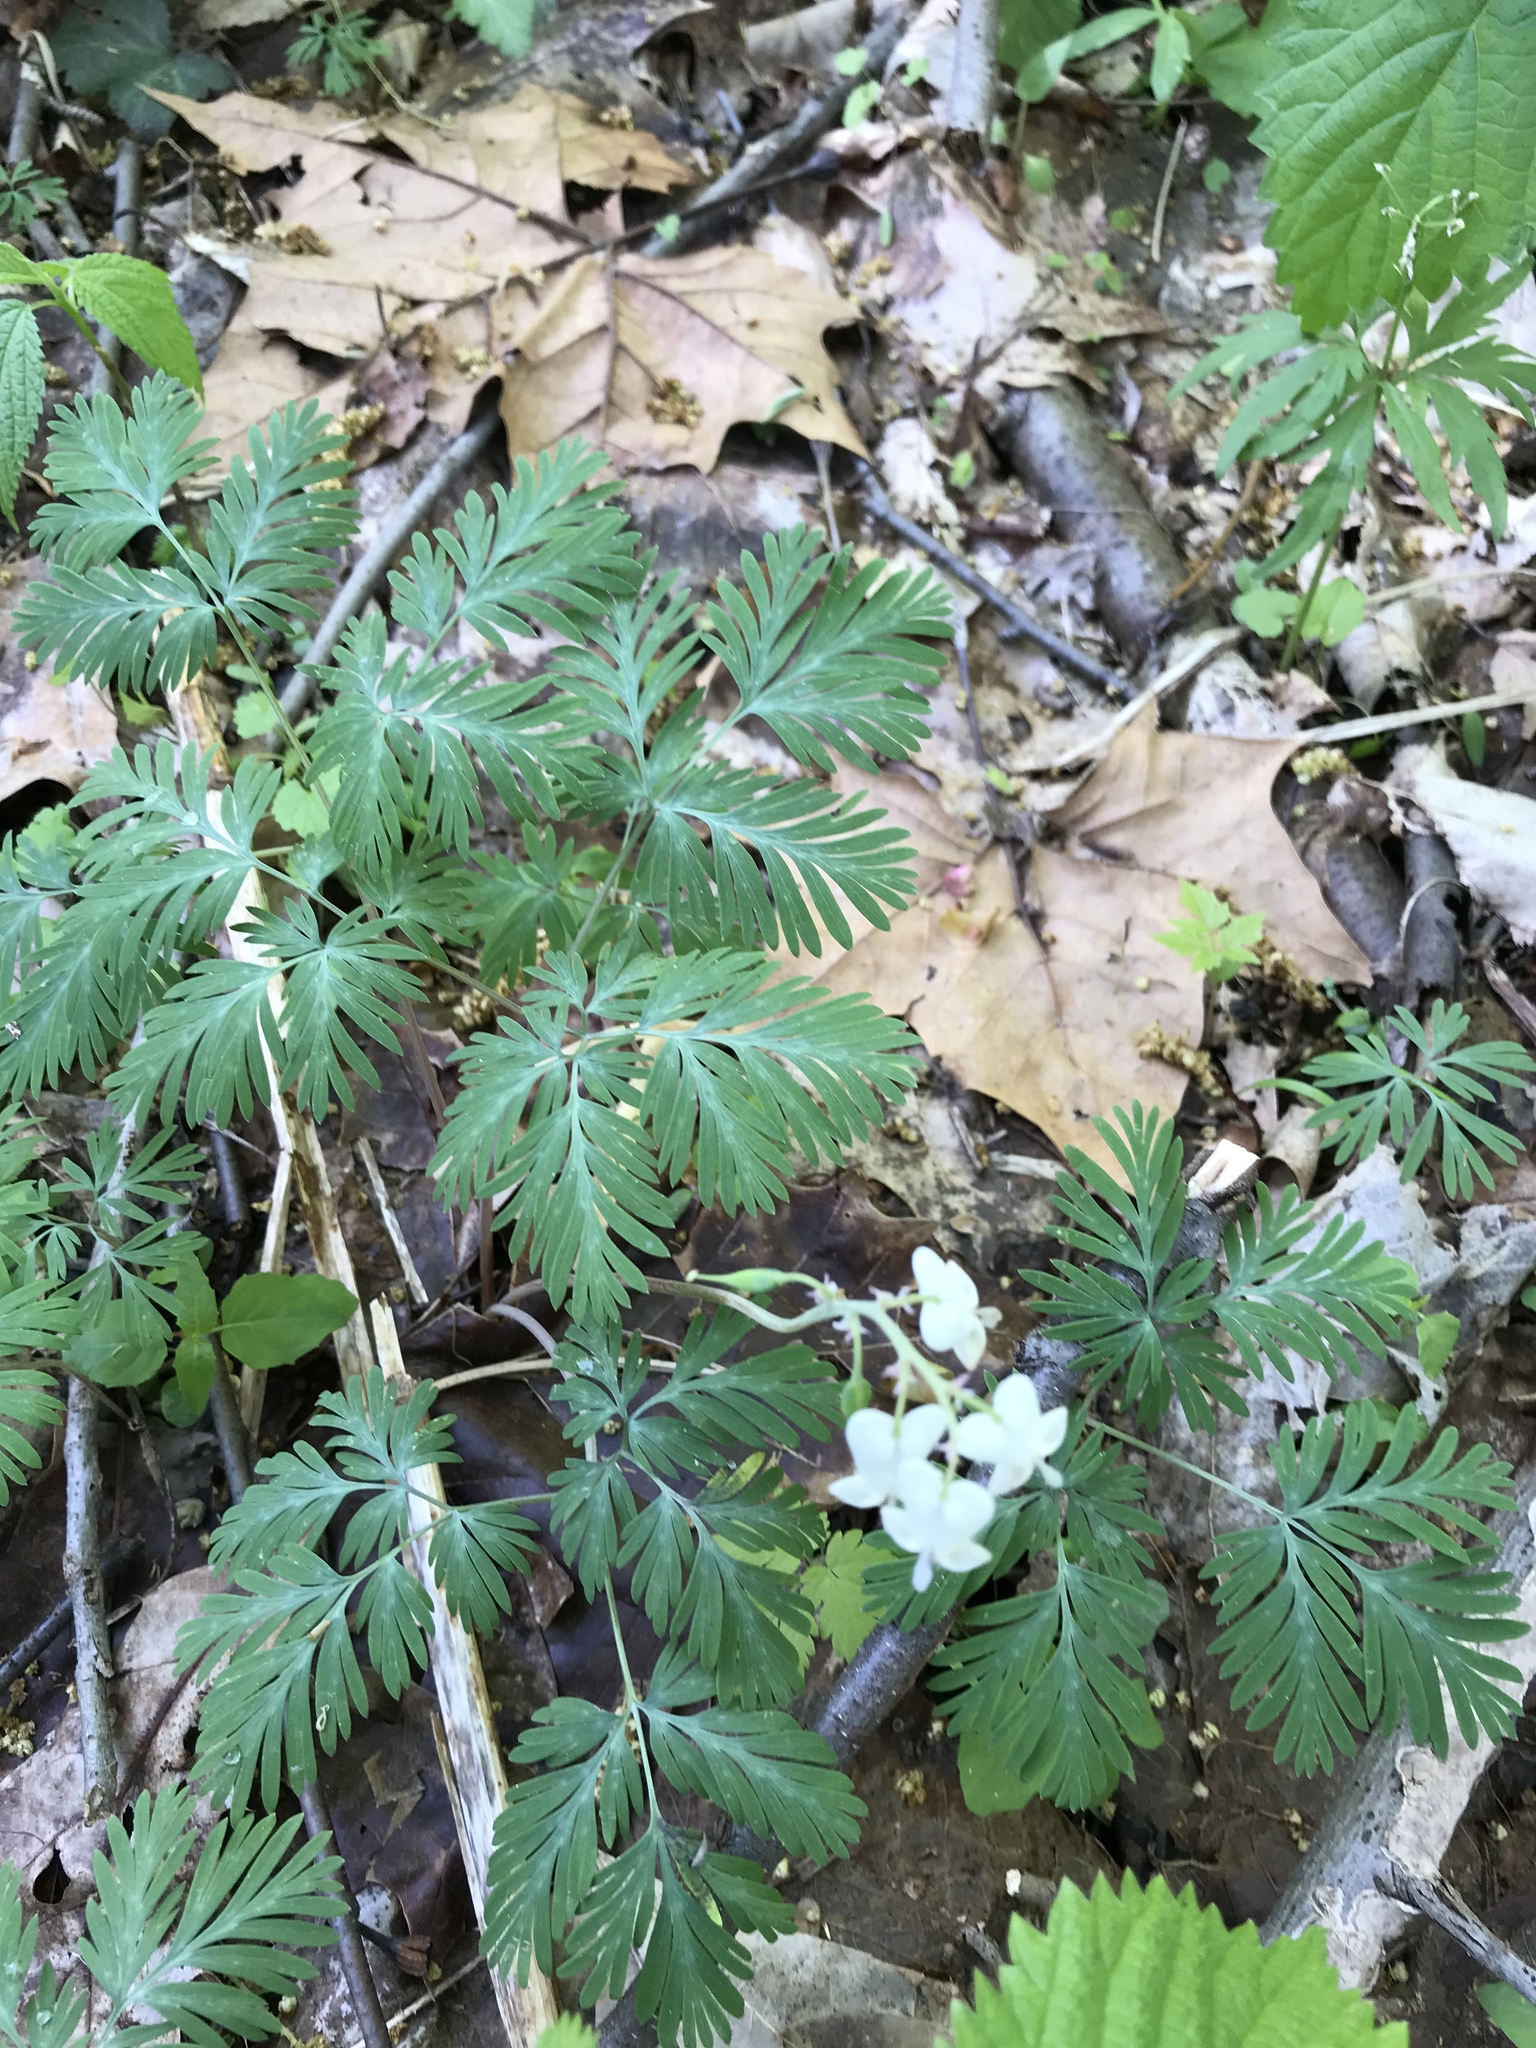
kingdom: Plantae
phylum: Tracheophyta
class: Magnoliopsida
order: Ranunculales
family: Papaveraceae
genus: Dicentra
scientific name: Dicentra canadensis
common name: Squirrel-corn
